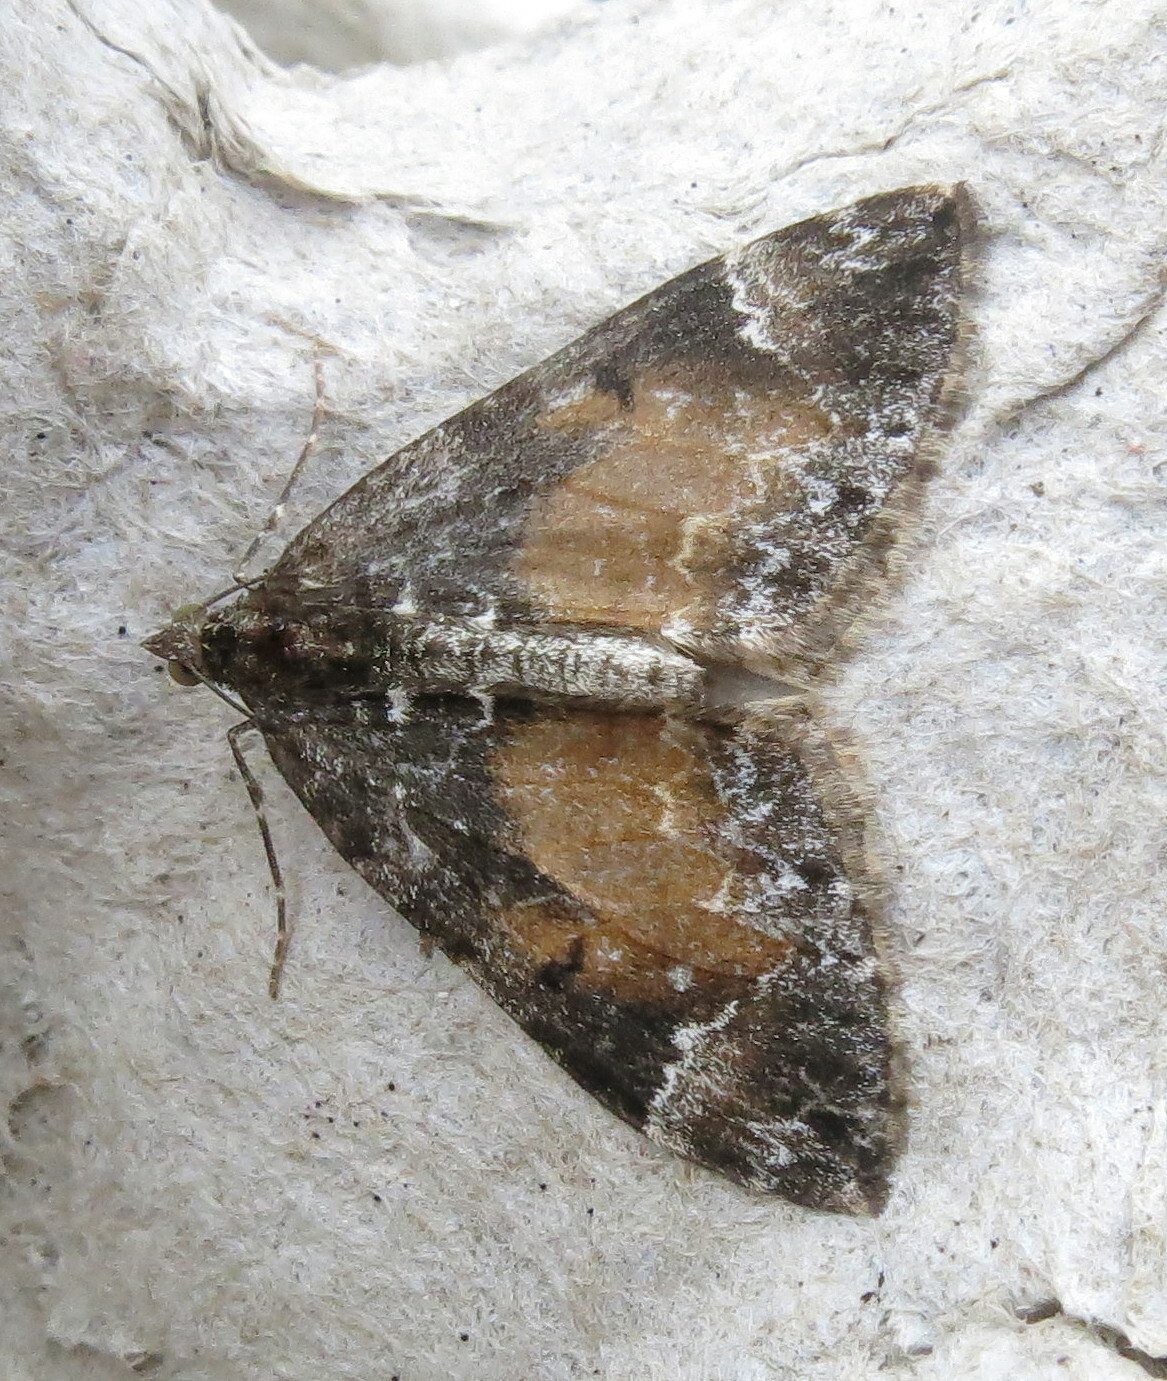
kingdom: Animalia
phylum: Arthropoda
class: Insecta
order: Lepidoptera
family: Geometridae
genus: Dysstroma
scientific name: Dysstroma truncata
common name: Common marbled carpet
